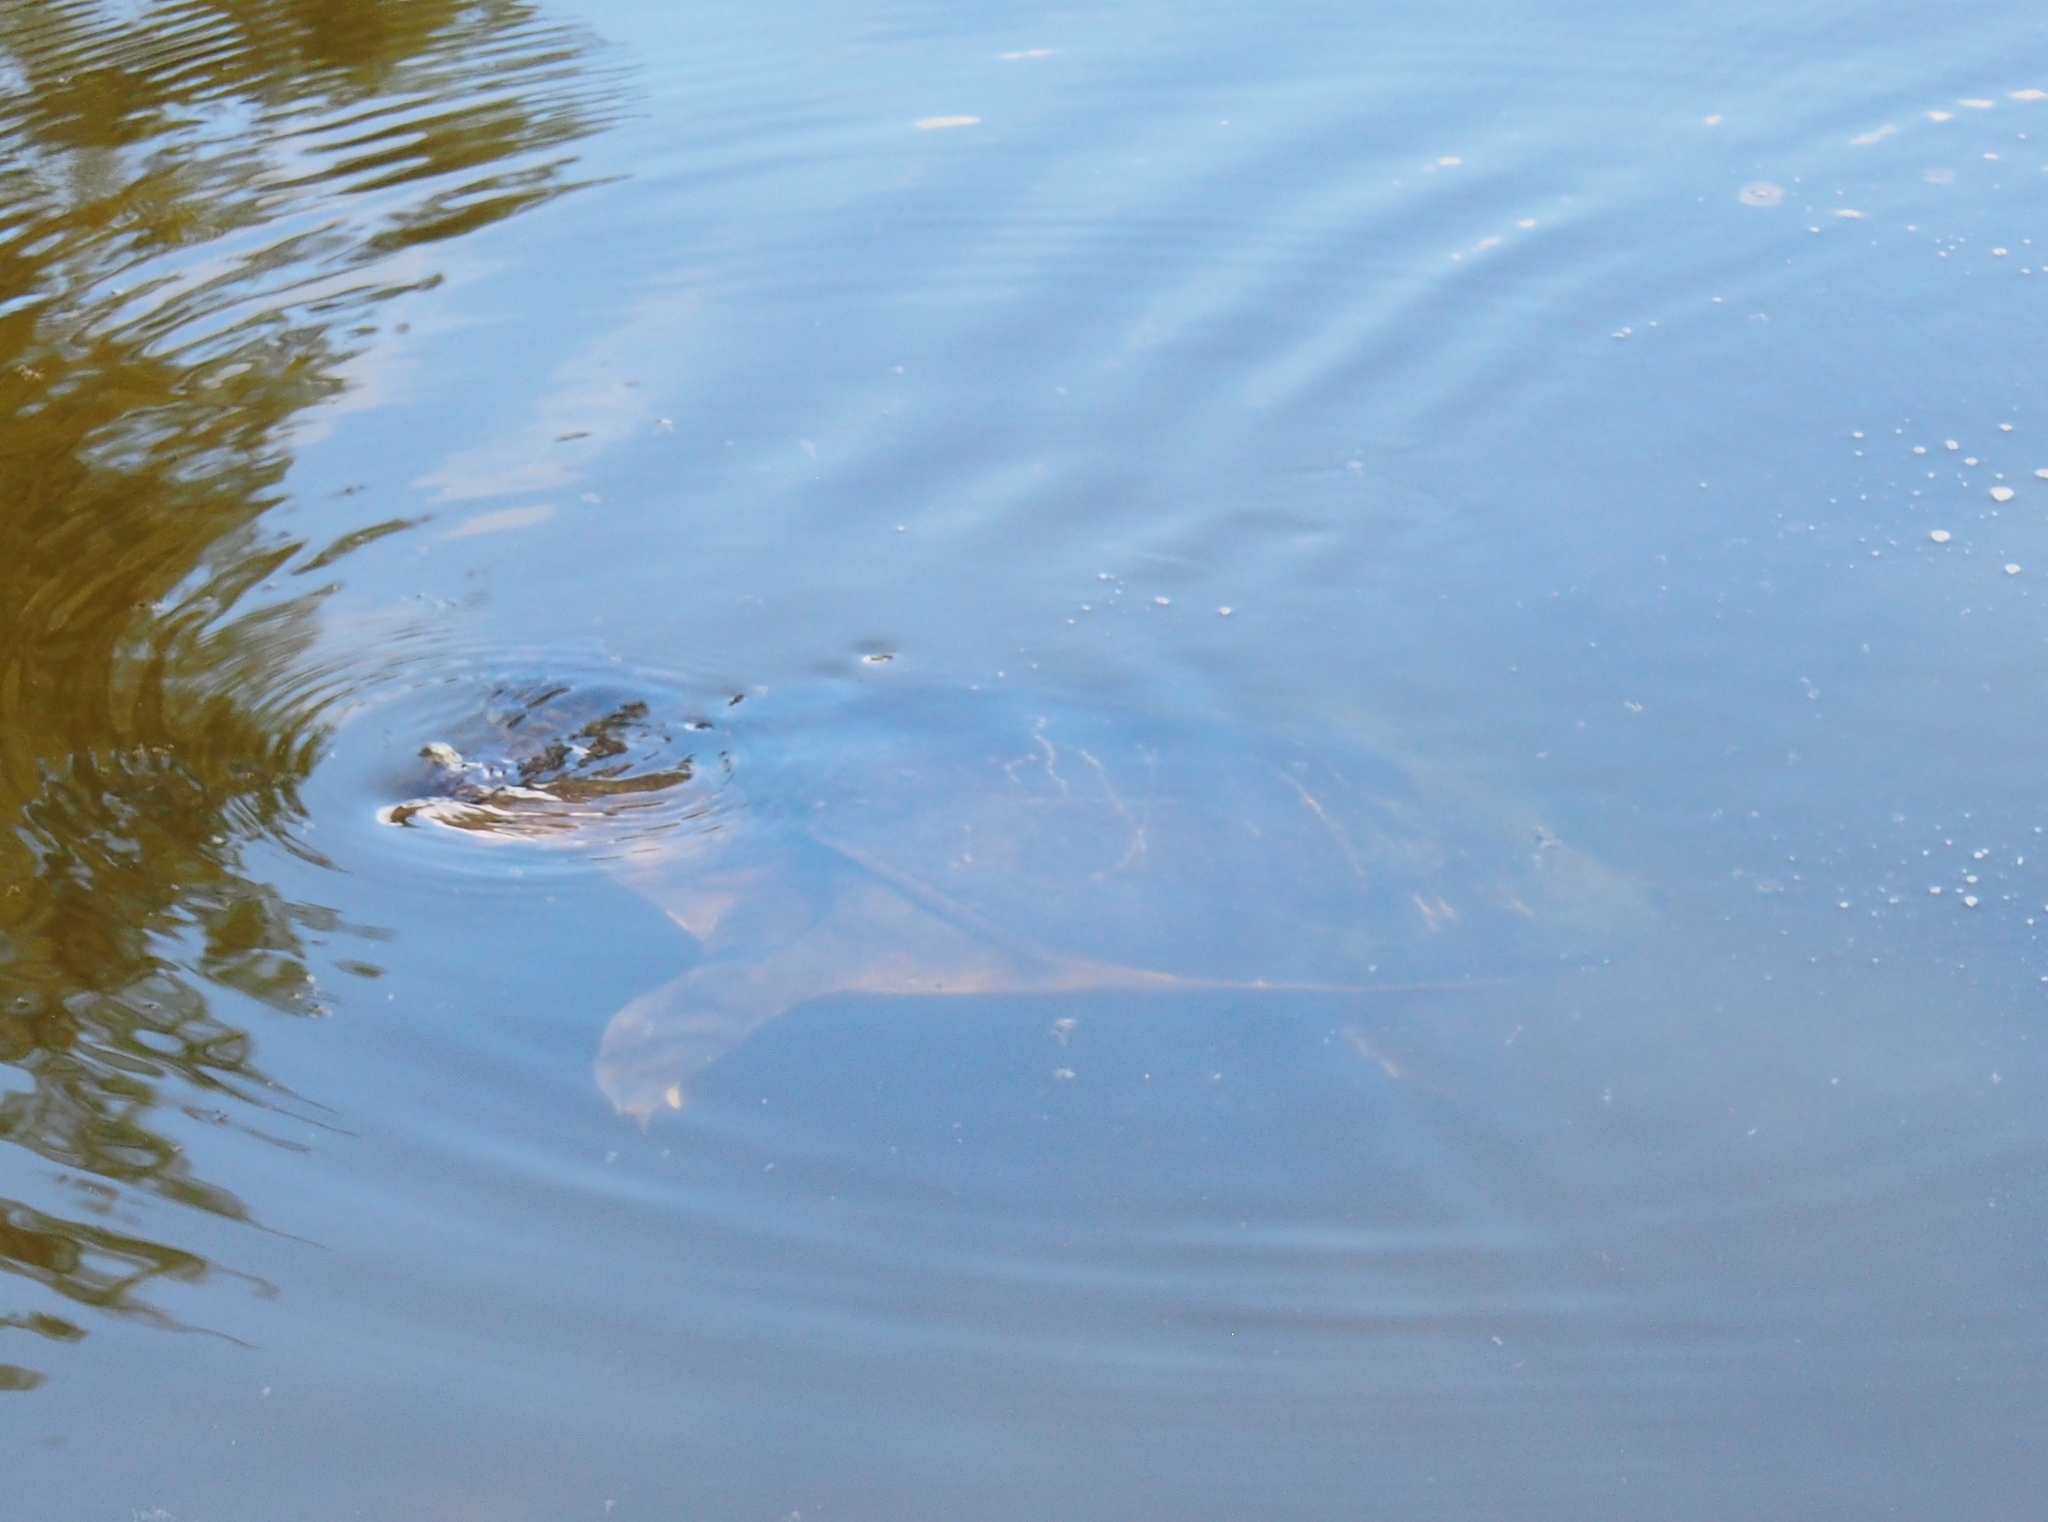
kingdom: Animalia
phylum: Chordata
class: Testudines
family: Trionychidae
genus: Apalone
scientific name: Apalone ferox
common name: Florida softshell turtle
